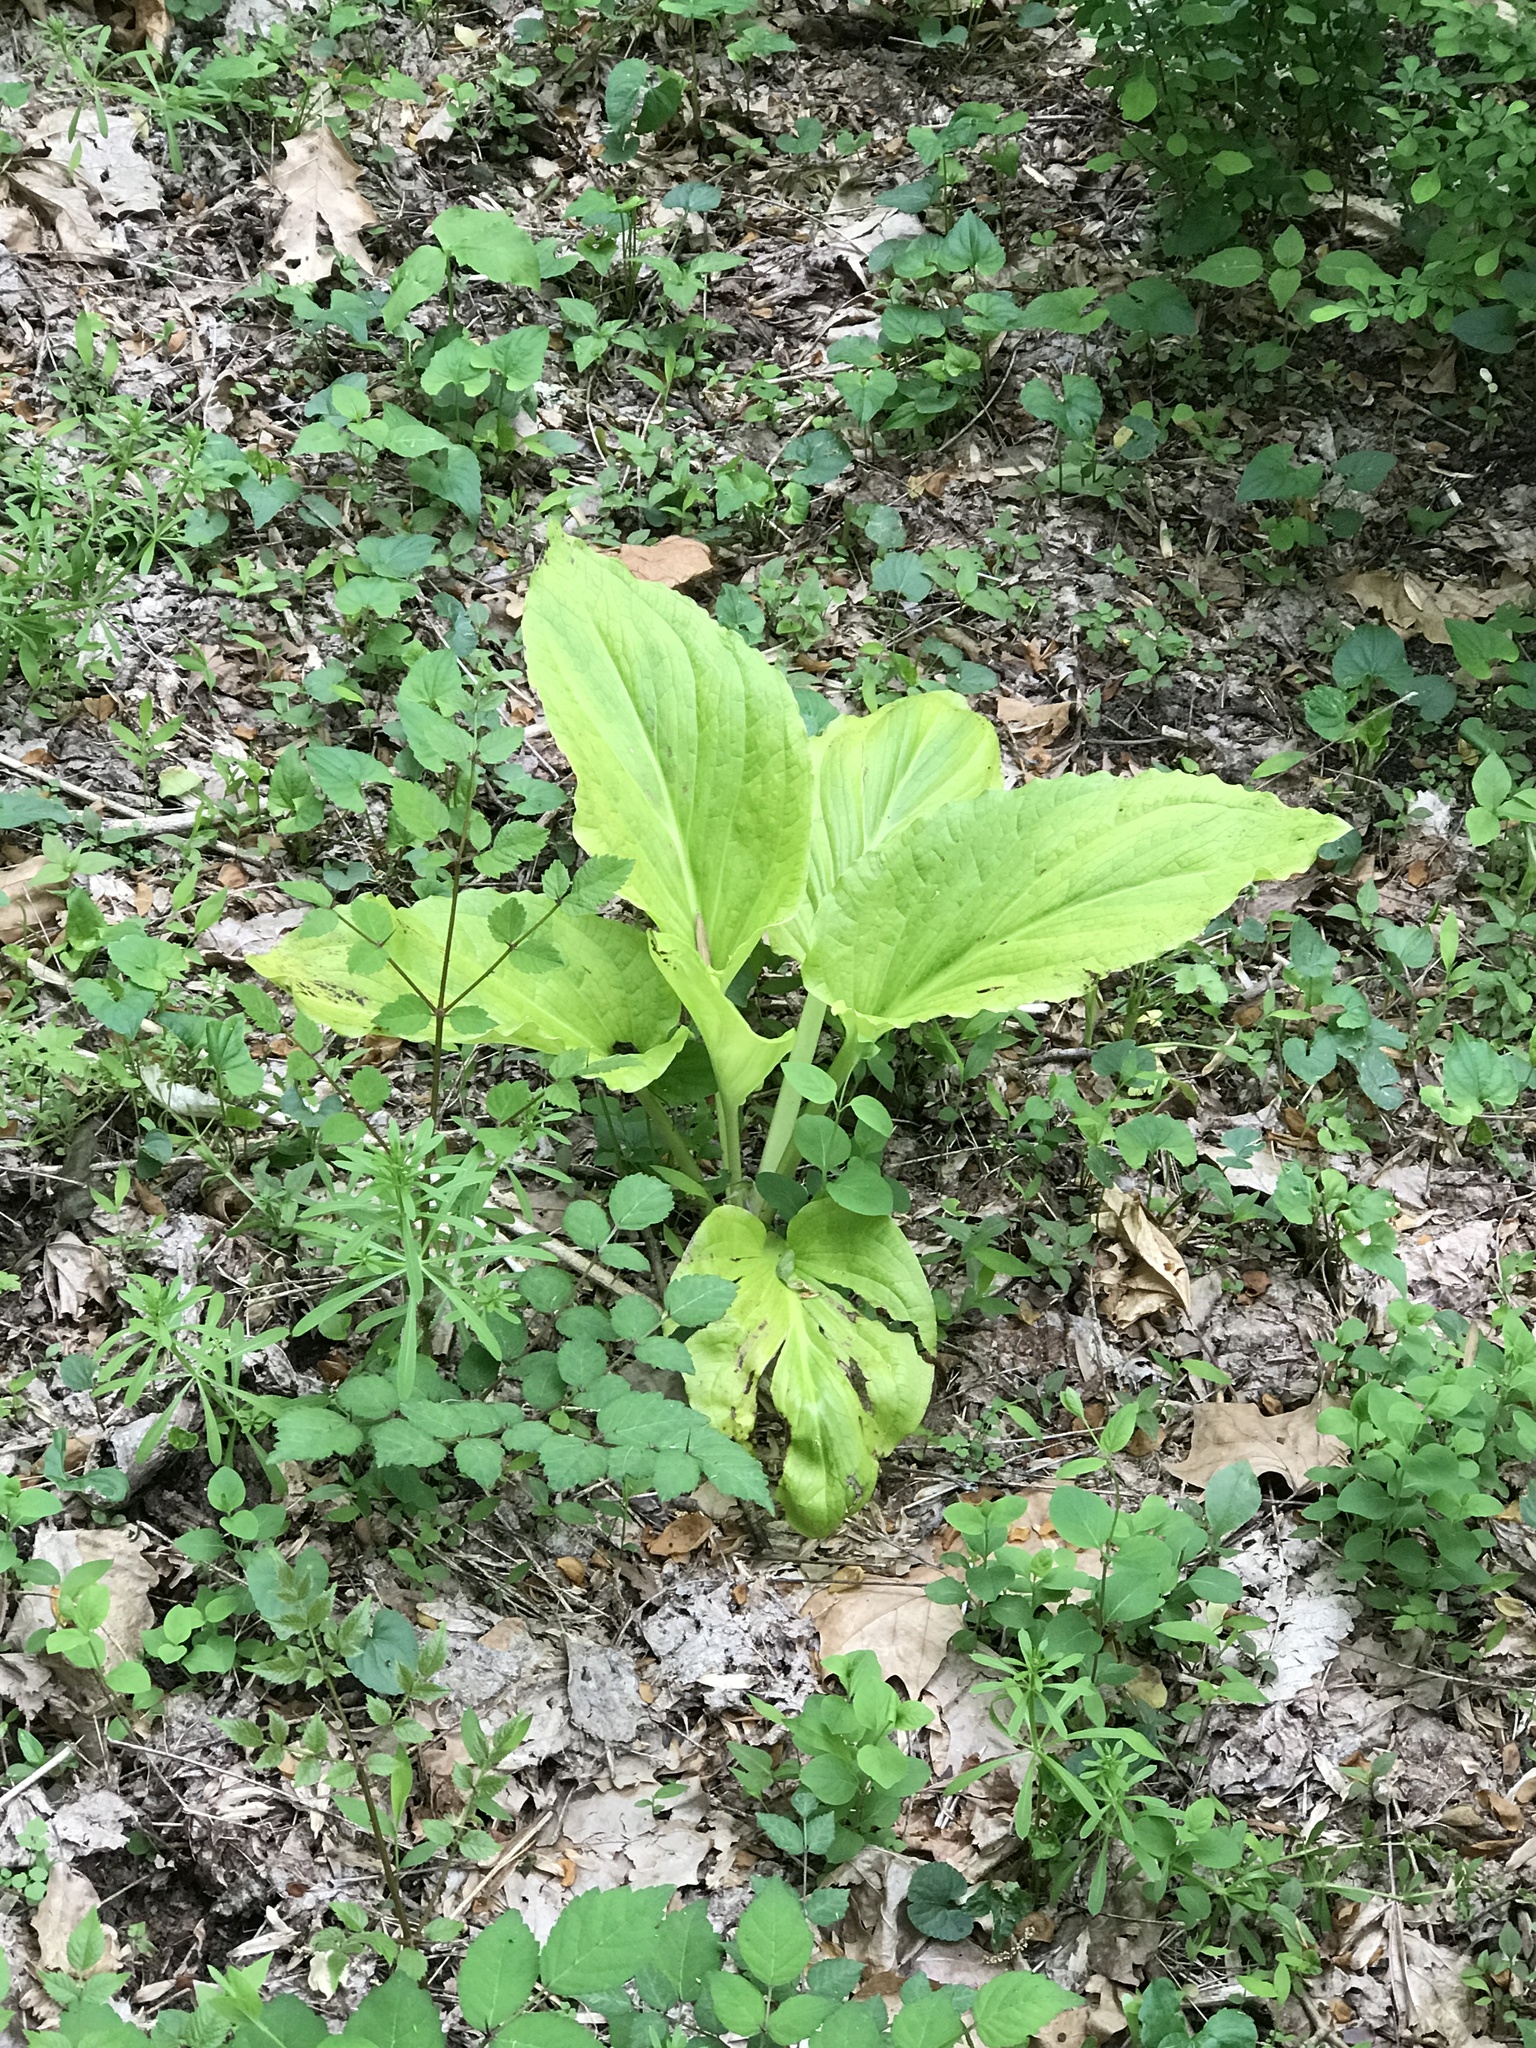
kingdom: Plantae
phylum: Tracheophyta
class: Liliopsida
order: Alismatales
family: Araceae
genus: Symplocarpus
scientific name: Symplocarpus foetidus
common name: Eastern skunk cabbage
